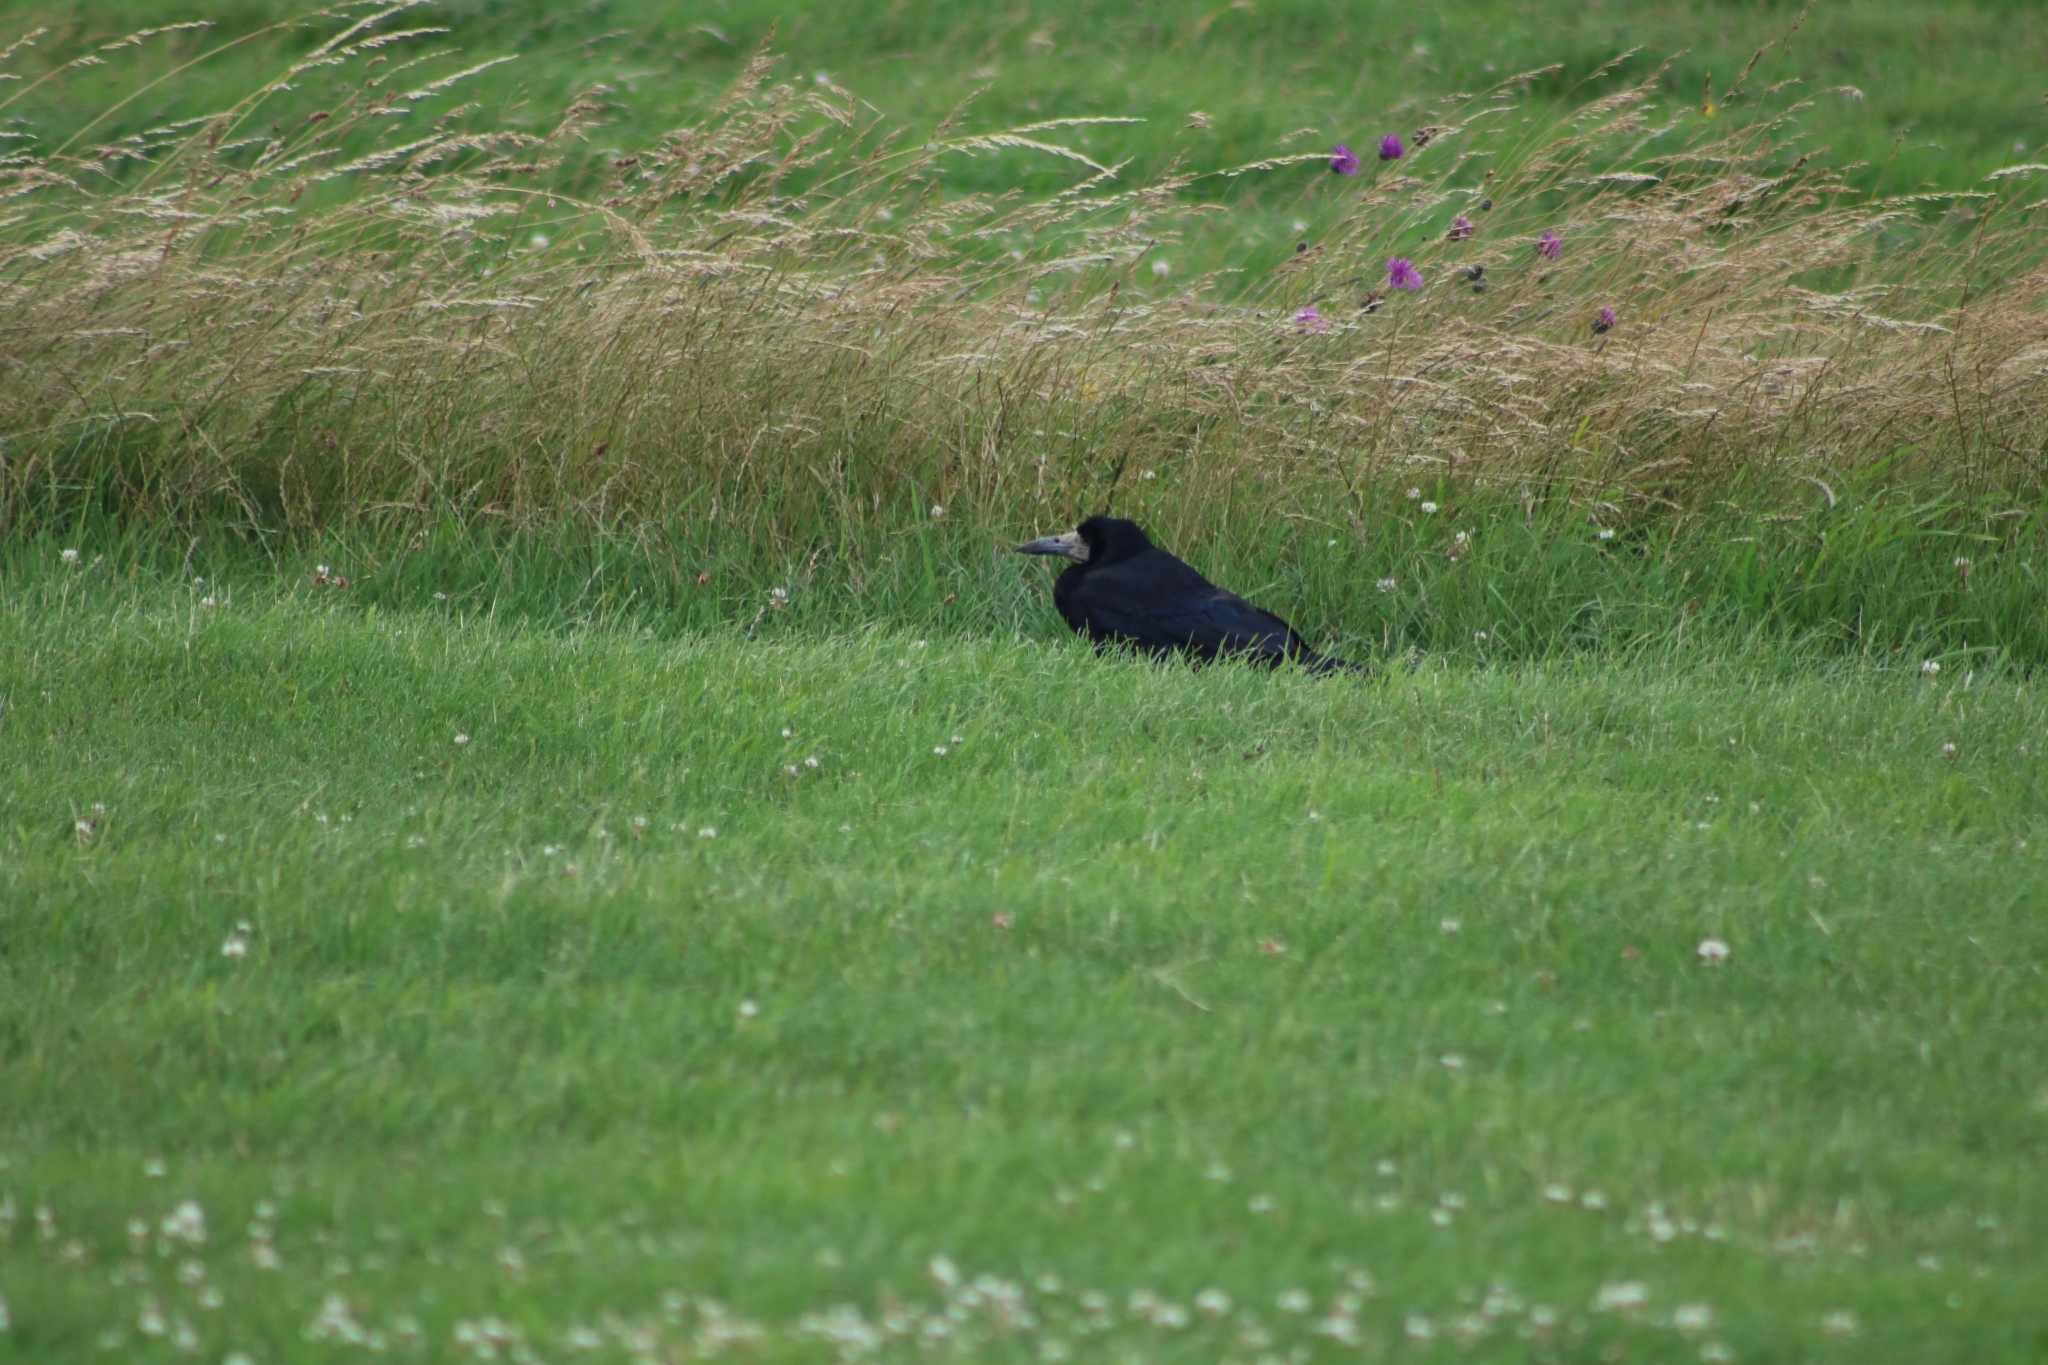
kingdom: Animalia
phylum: Chordata
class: Aves
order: Passeriformes
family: Corvidae
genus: Corvus
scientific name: Corvus frugilegus
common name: Rook
